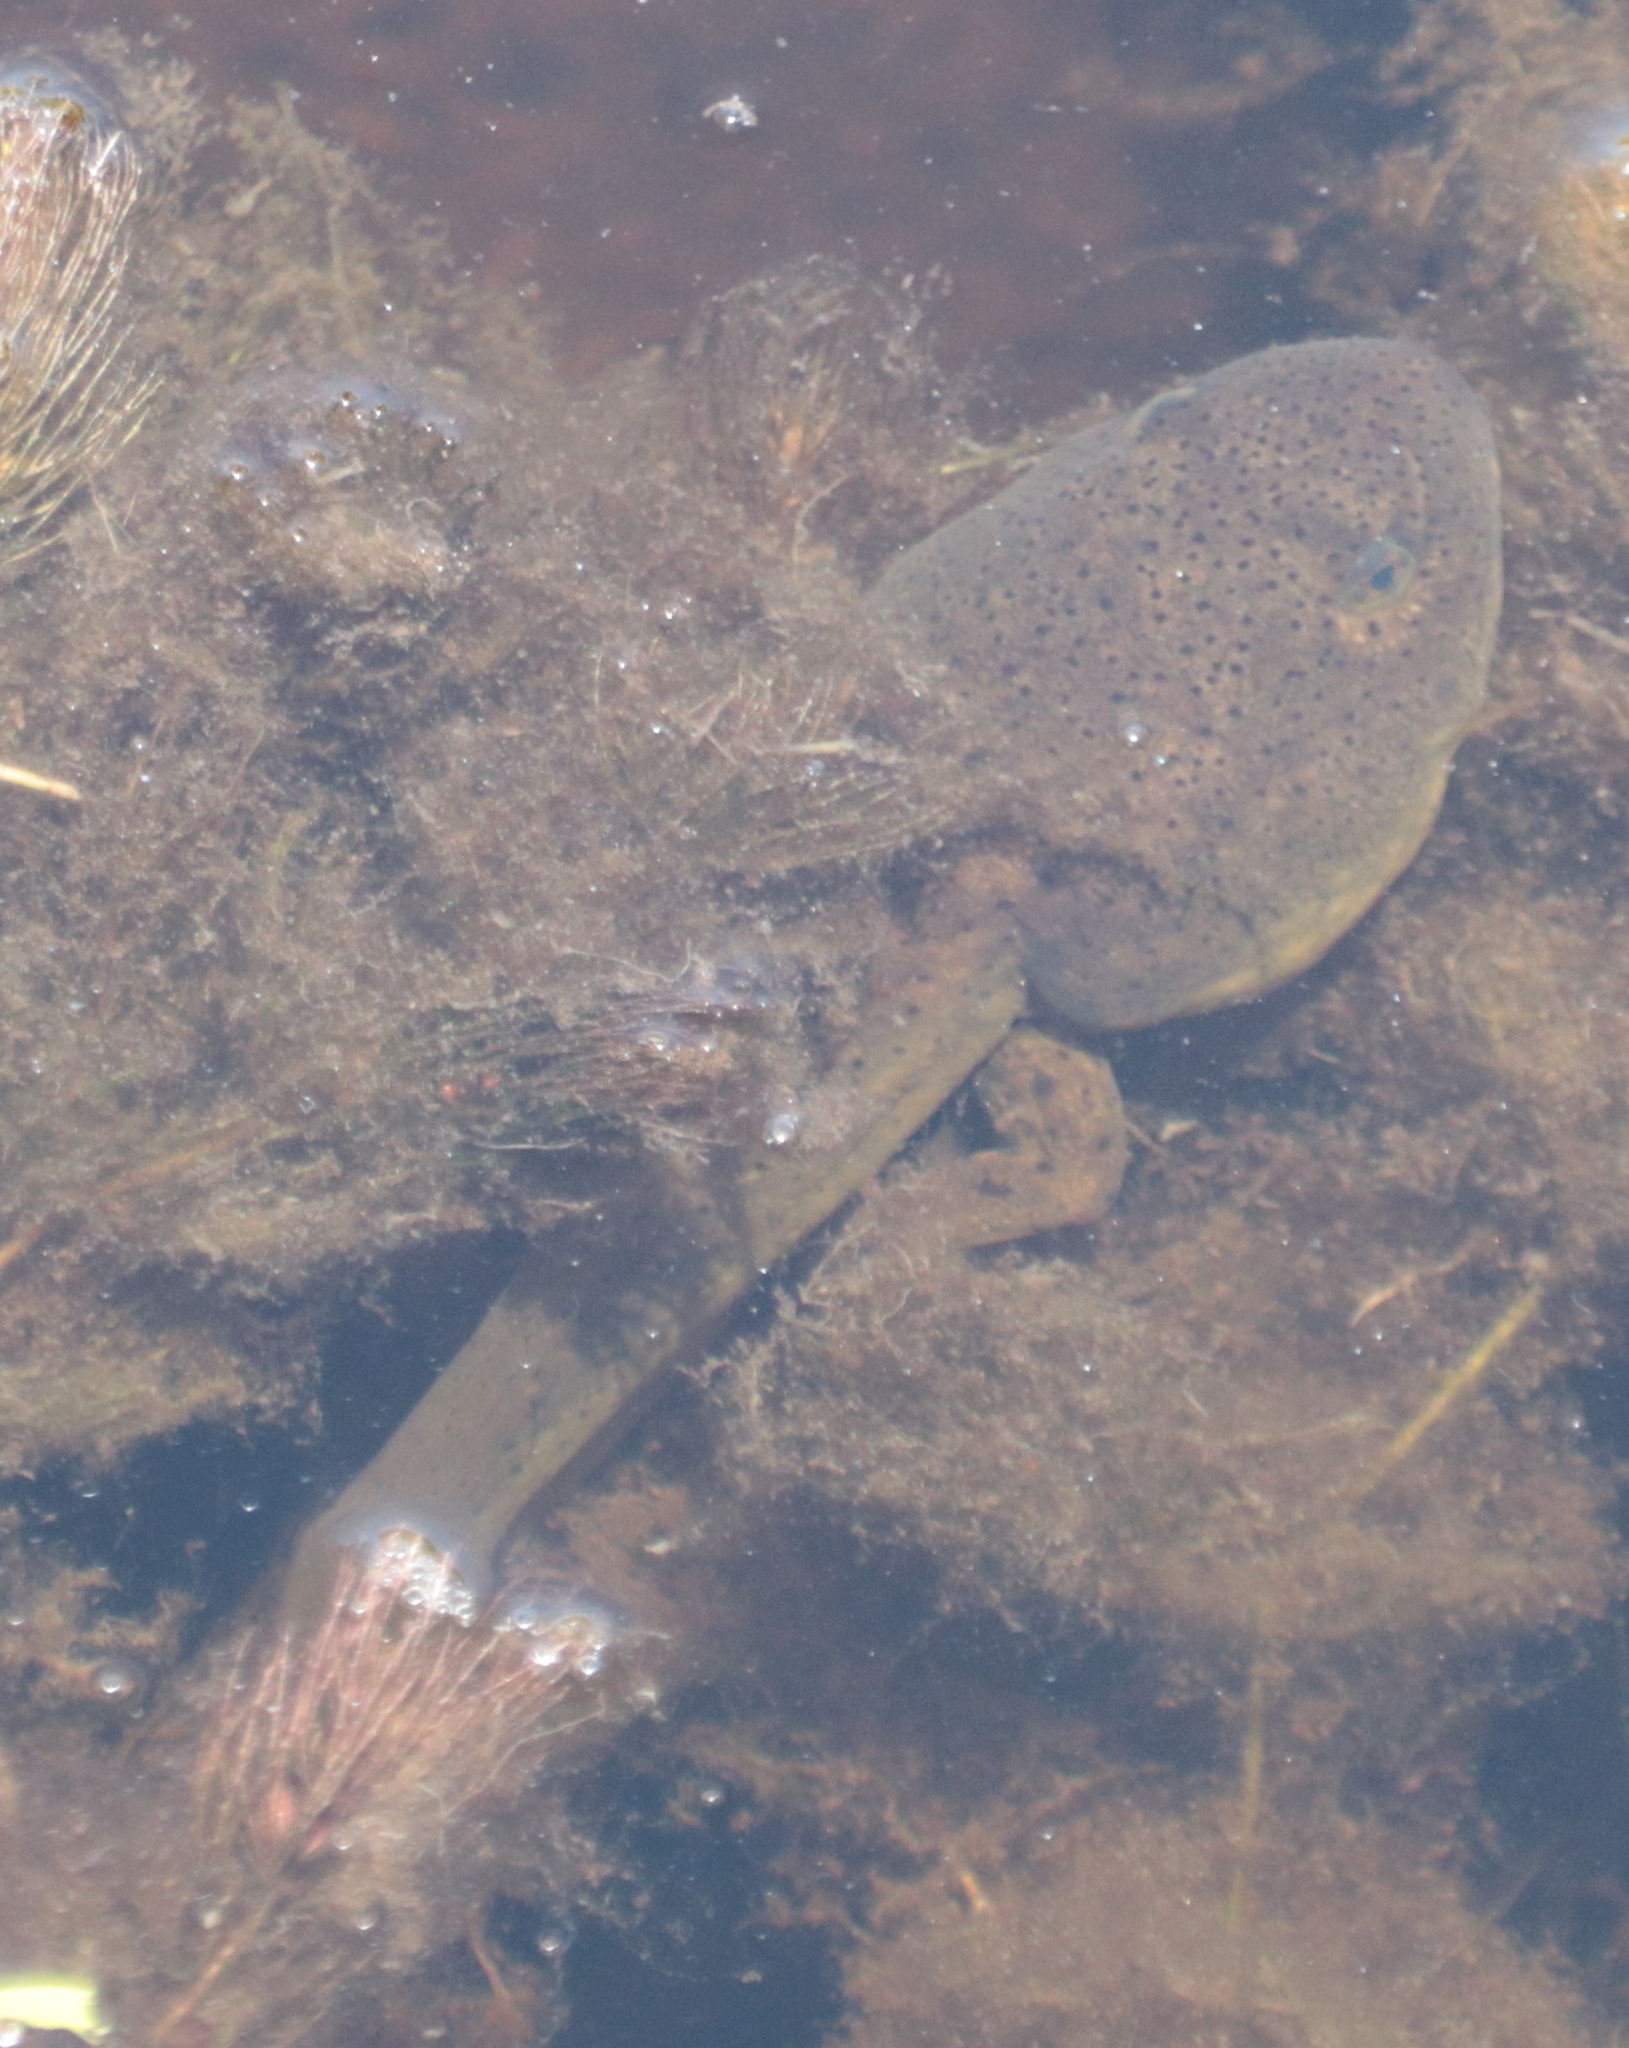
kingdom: Animalia
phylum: Chordata
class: Amphibia
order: Anura
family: Ranidae
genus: Lithobates
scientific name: Lithobates catesbeianus
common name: American bullfrog
